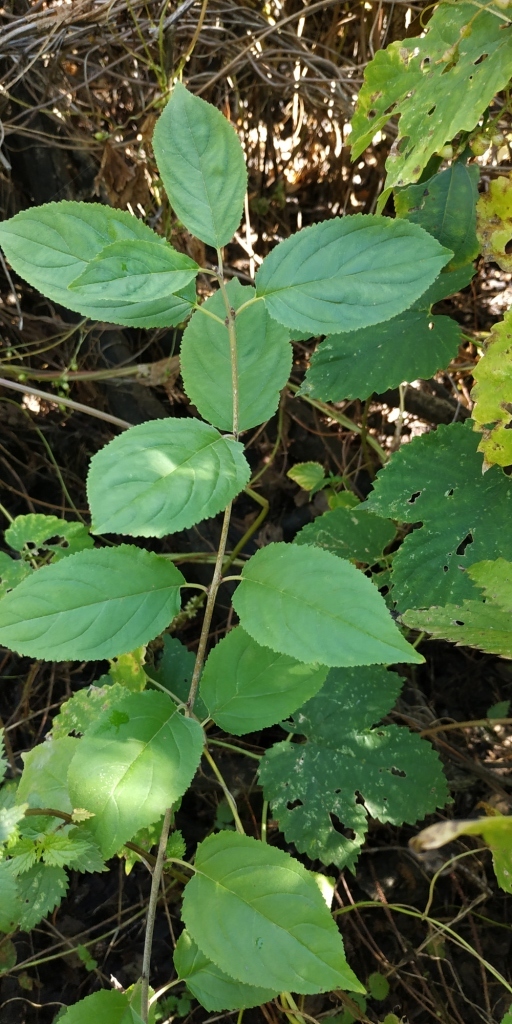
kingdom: Plantae
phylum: Tracheophyta
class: Magnoliopsida
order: Rosales
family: Rhamnaceae
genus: Rhamnus
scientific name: Rhamnus cathartica
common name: Common buckthorn
